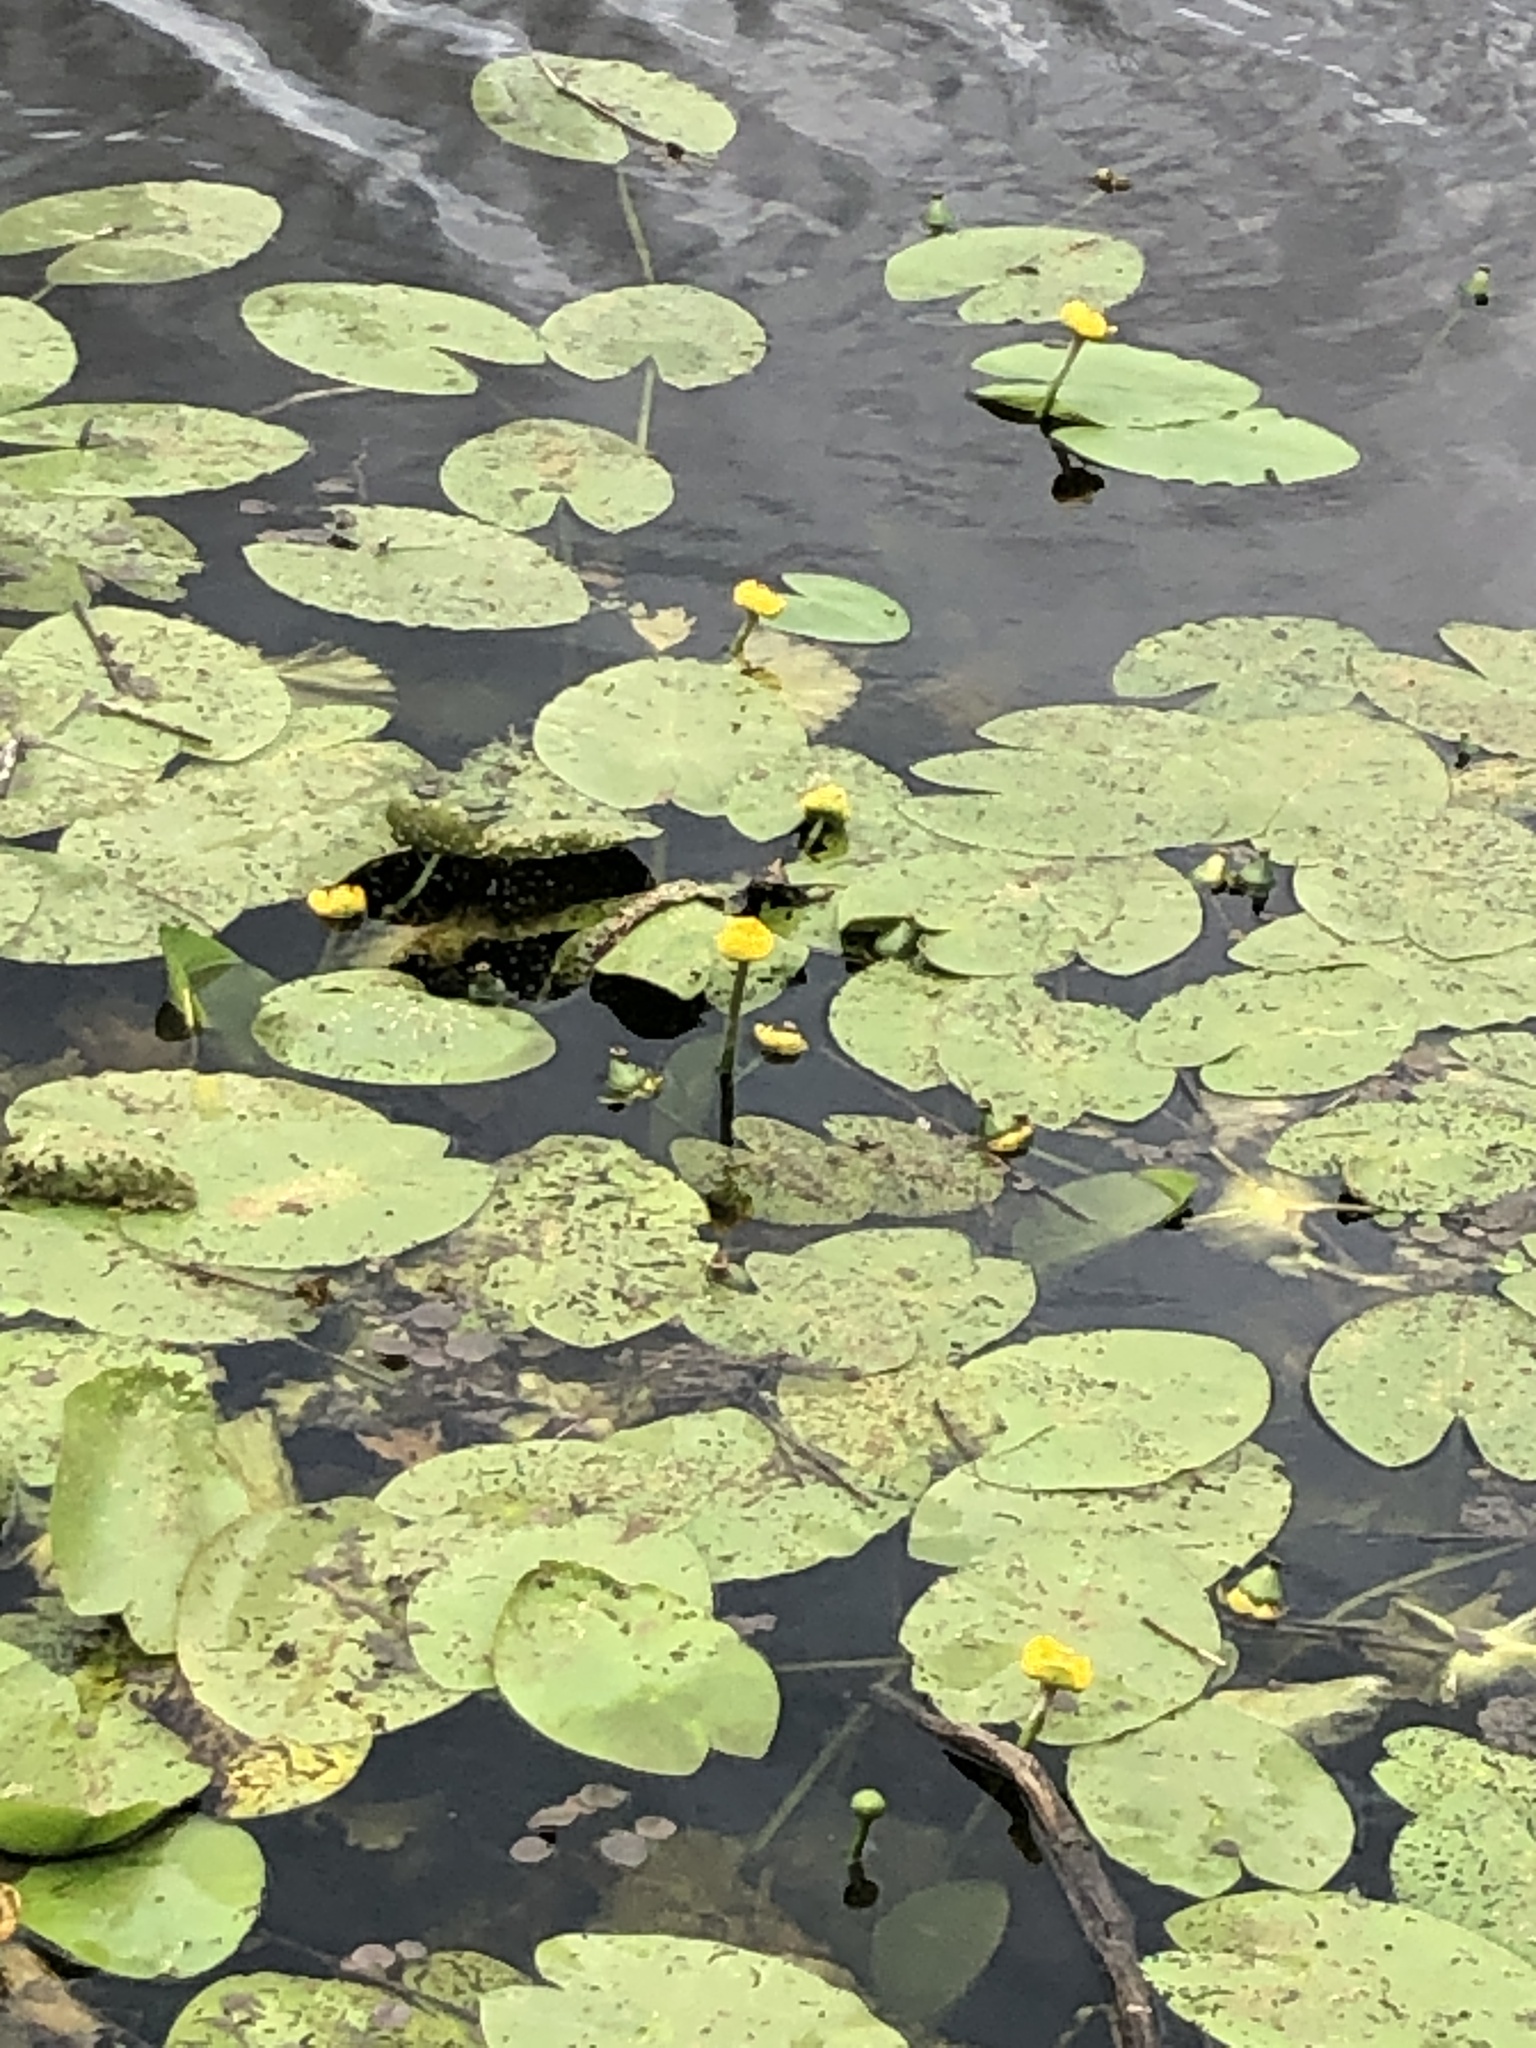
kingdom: Plantae
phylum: Tracheophyta
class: Magnoliopsida
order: Nymphaeales
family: Nymphaeaceae
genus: Nuphar
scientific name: Nuphar lutea
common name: Yellow water-lily
